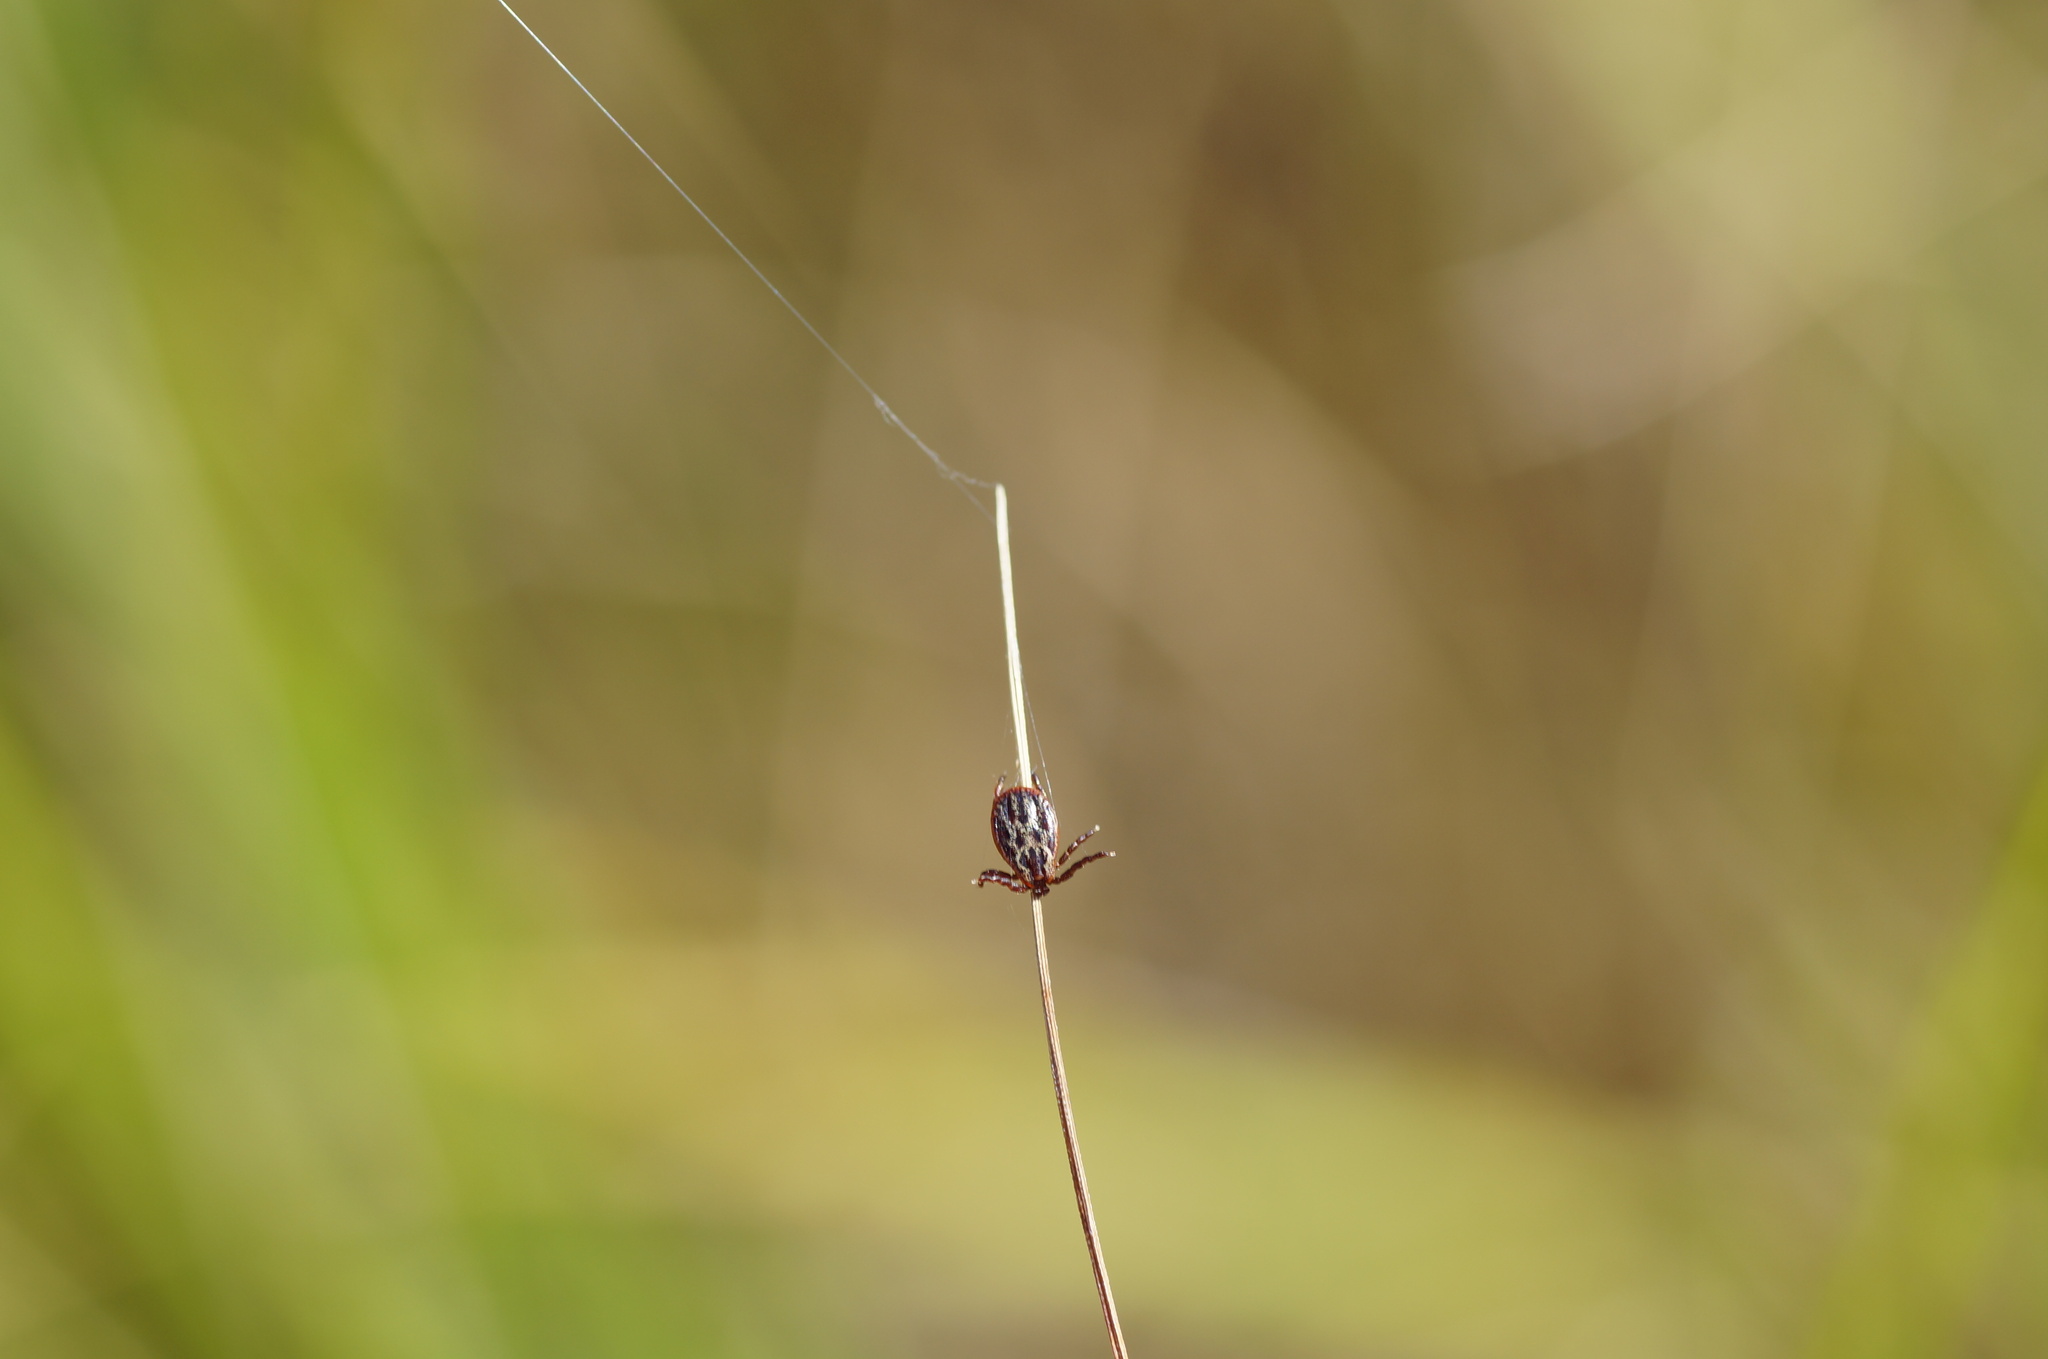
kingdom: Animalia
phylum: Arthropoda
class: Arachnida
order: Ixodida
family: Ixodidae
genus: Dermacentor
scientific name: Dermacentor reticulatus
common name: Ornate cow tick
